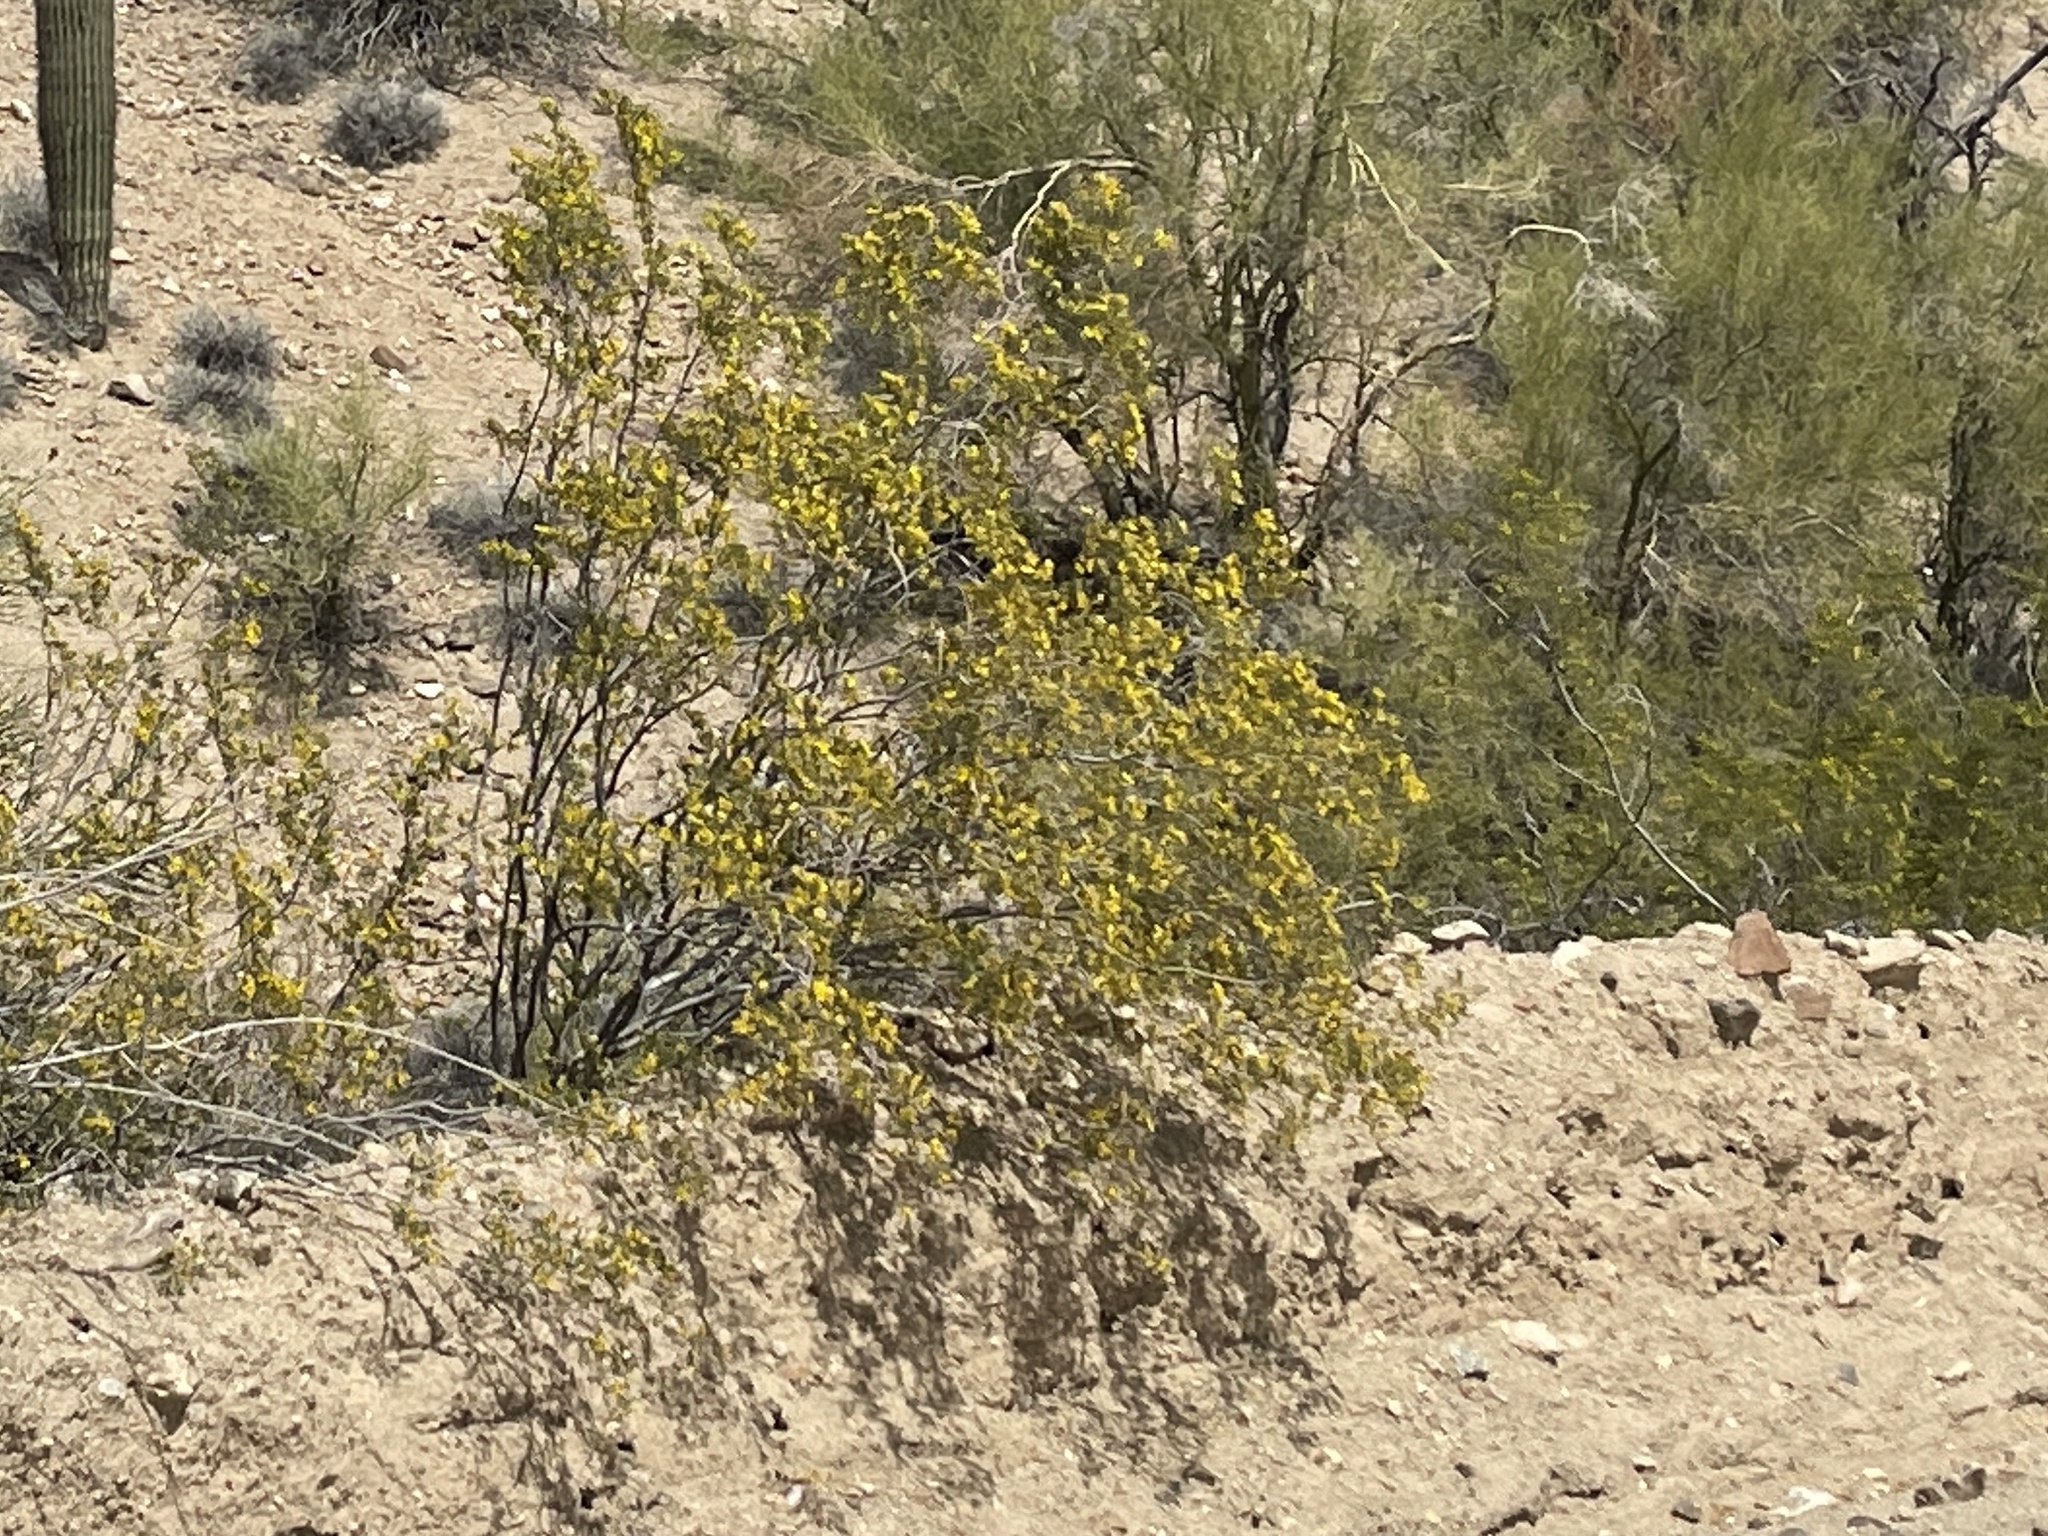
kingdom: Plantae
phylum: Tracheophyta
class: Magnoliopsida
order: Zygophyllales
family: Zygophyllaceae
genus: Larrea
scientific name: Larrea tridentata
